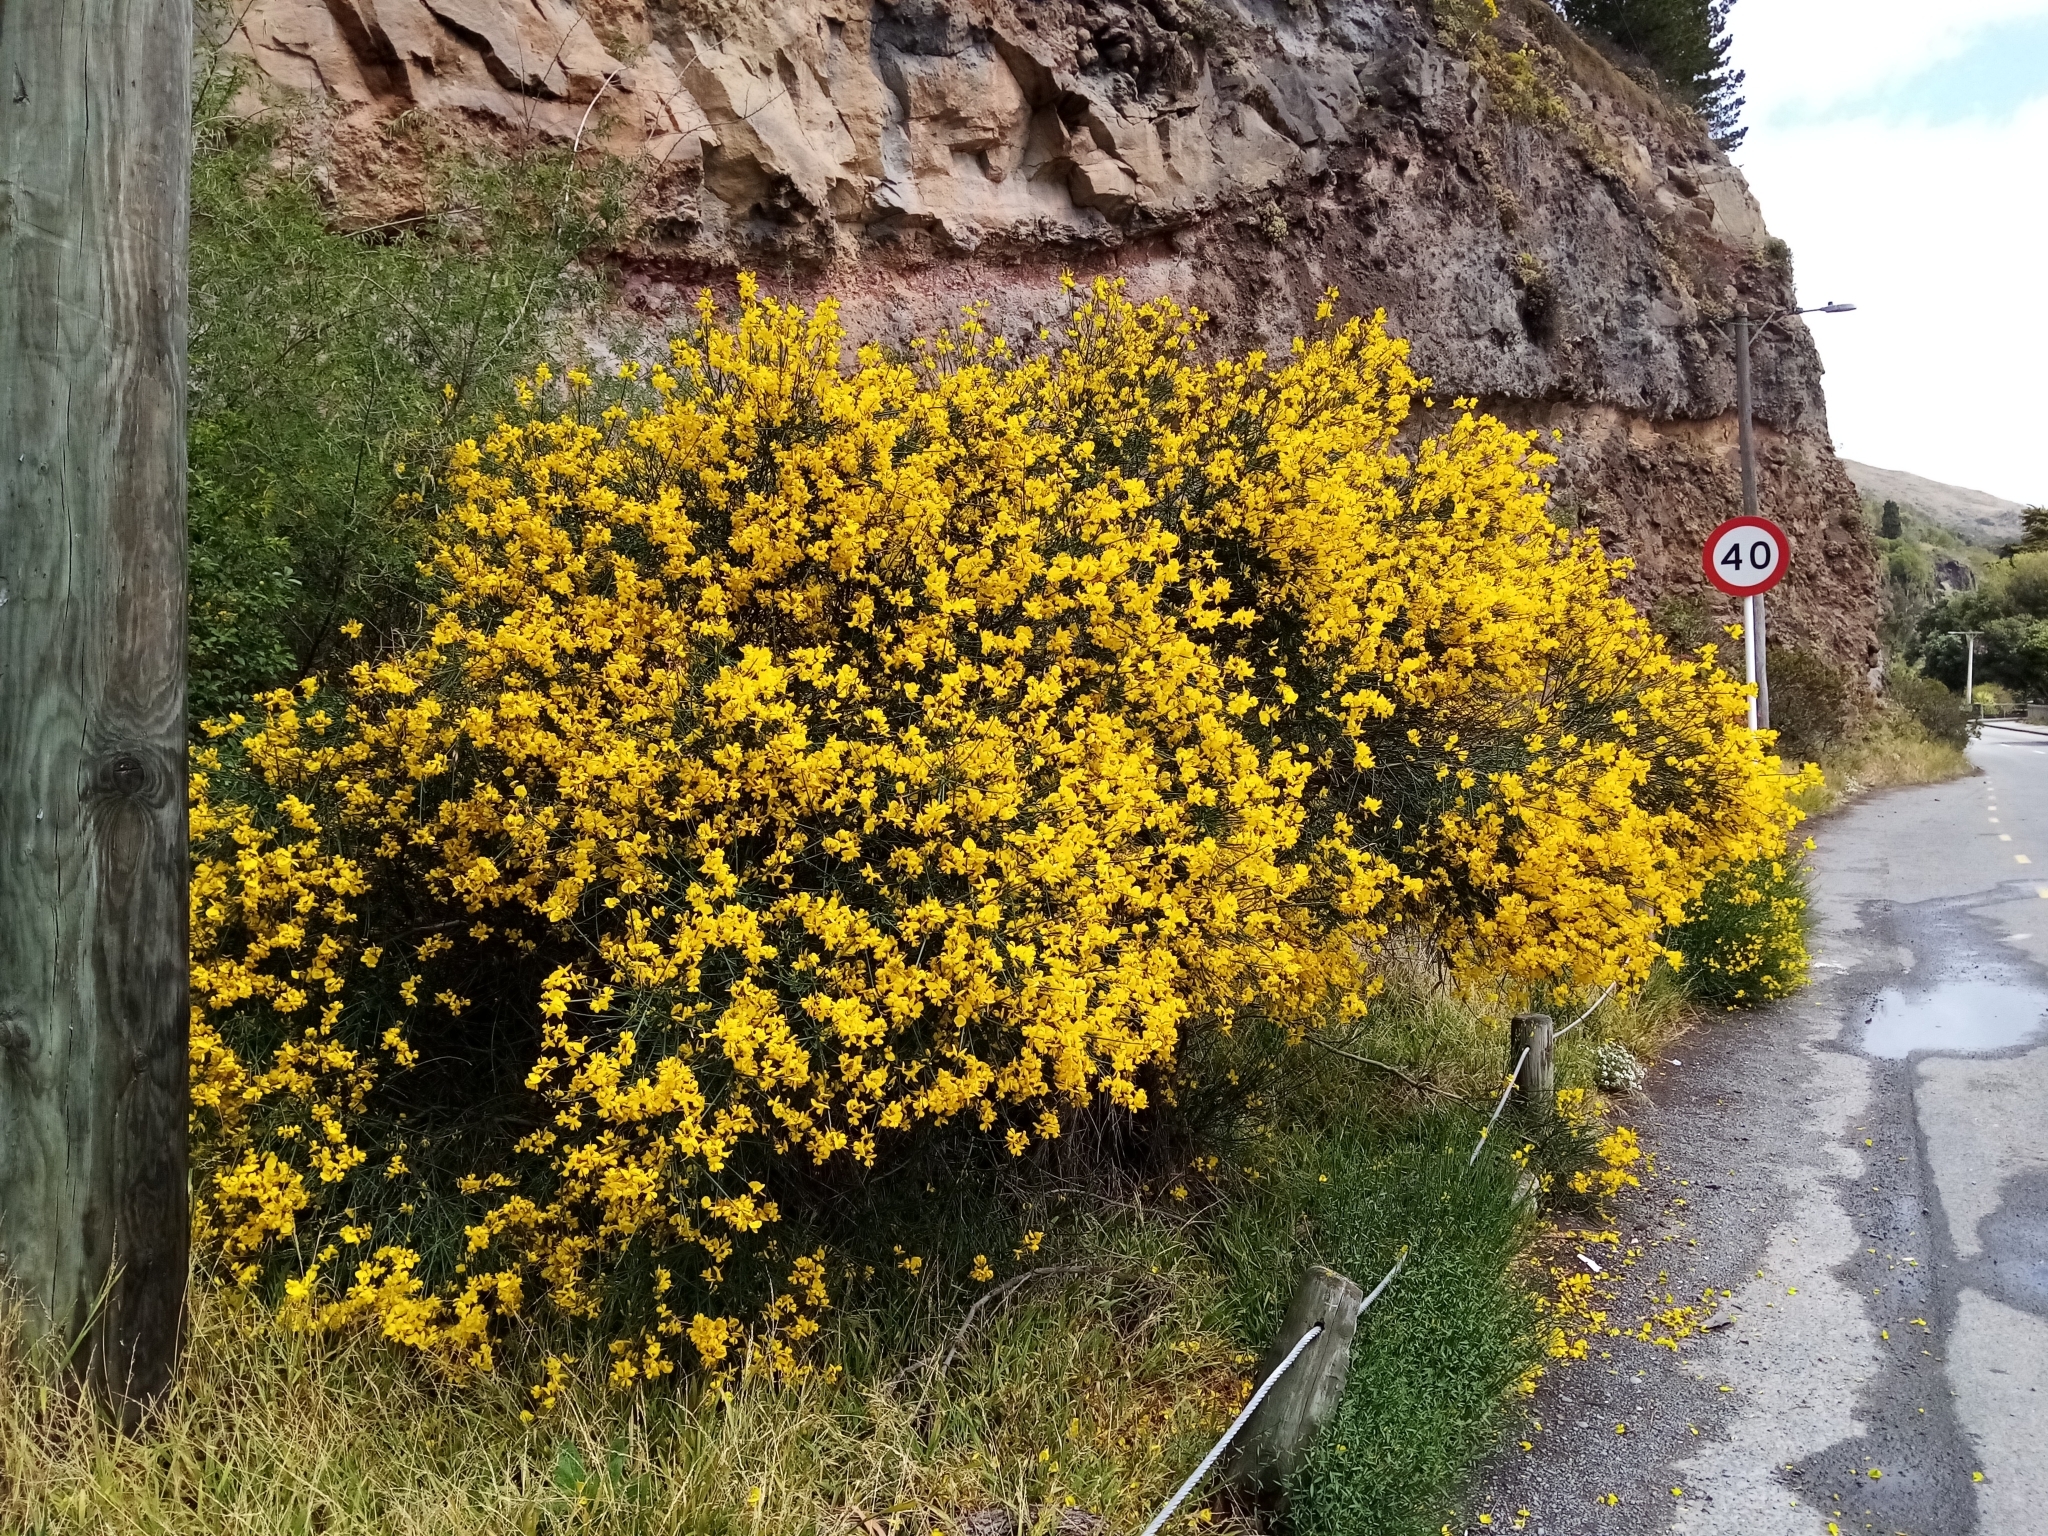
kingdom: Plantae
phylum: Tracheophyta
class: Magnoliopsida
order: Fabales
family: Fabaceae
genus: Spartium
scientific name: Spartium junceum
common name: Spanish broom
